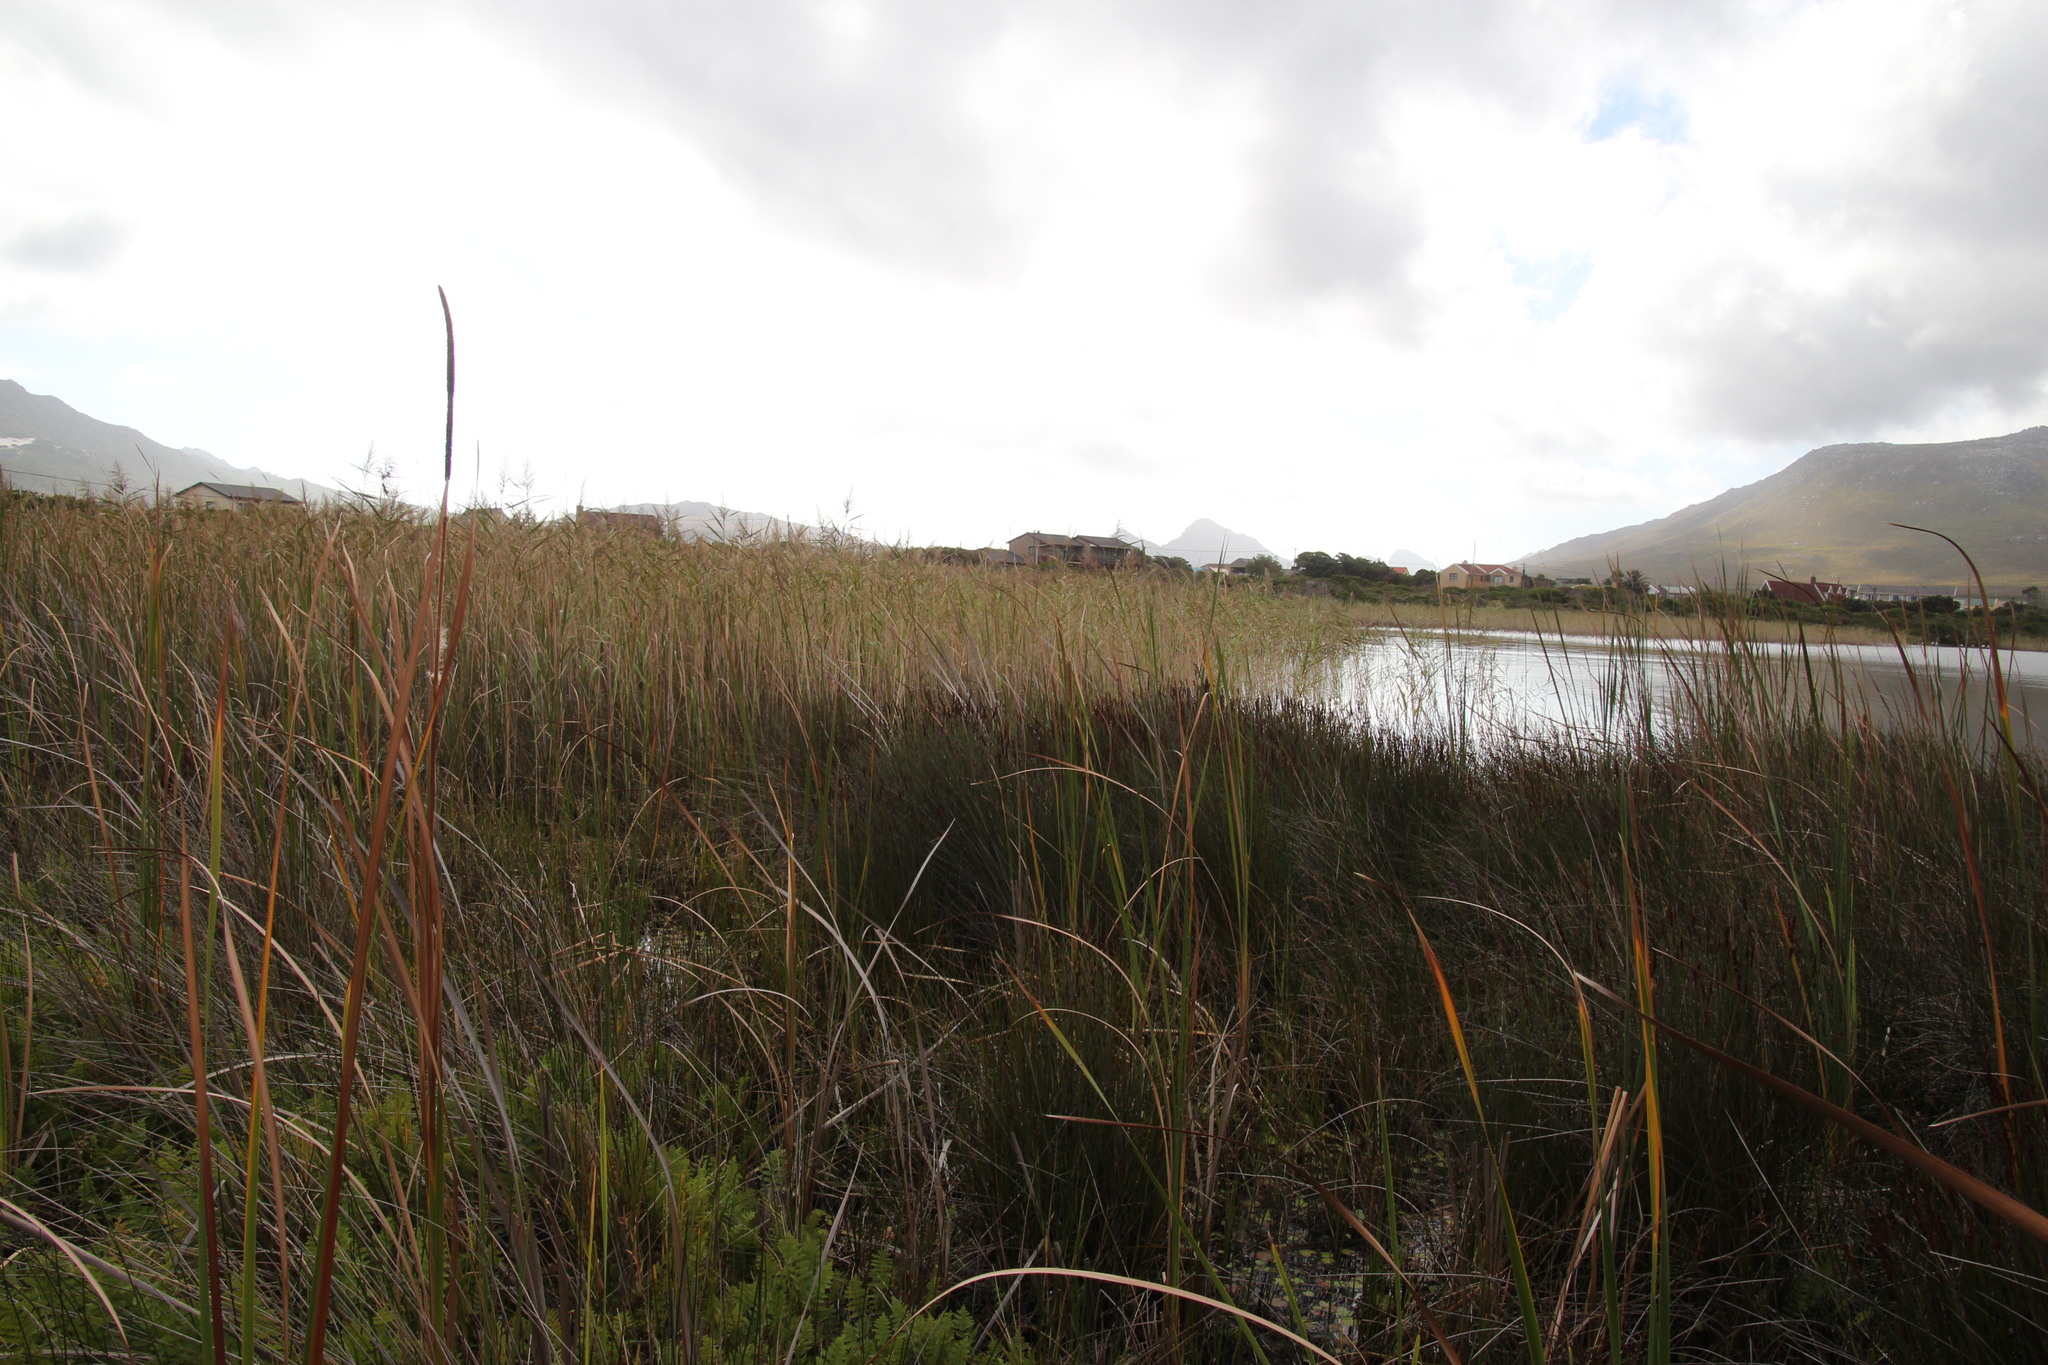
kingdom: Plantae
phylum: Tracheophyta
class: Liliopsida
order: Poales
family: Poaceae
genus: Phragmites
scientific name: Phragmites australis
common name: Common reed
